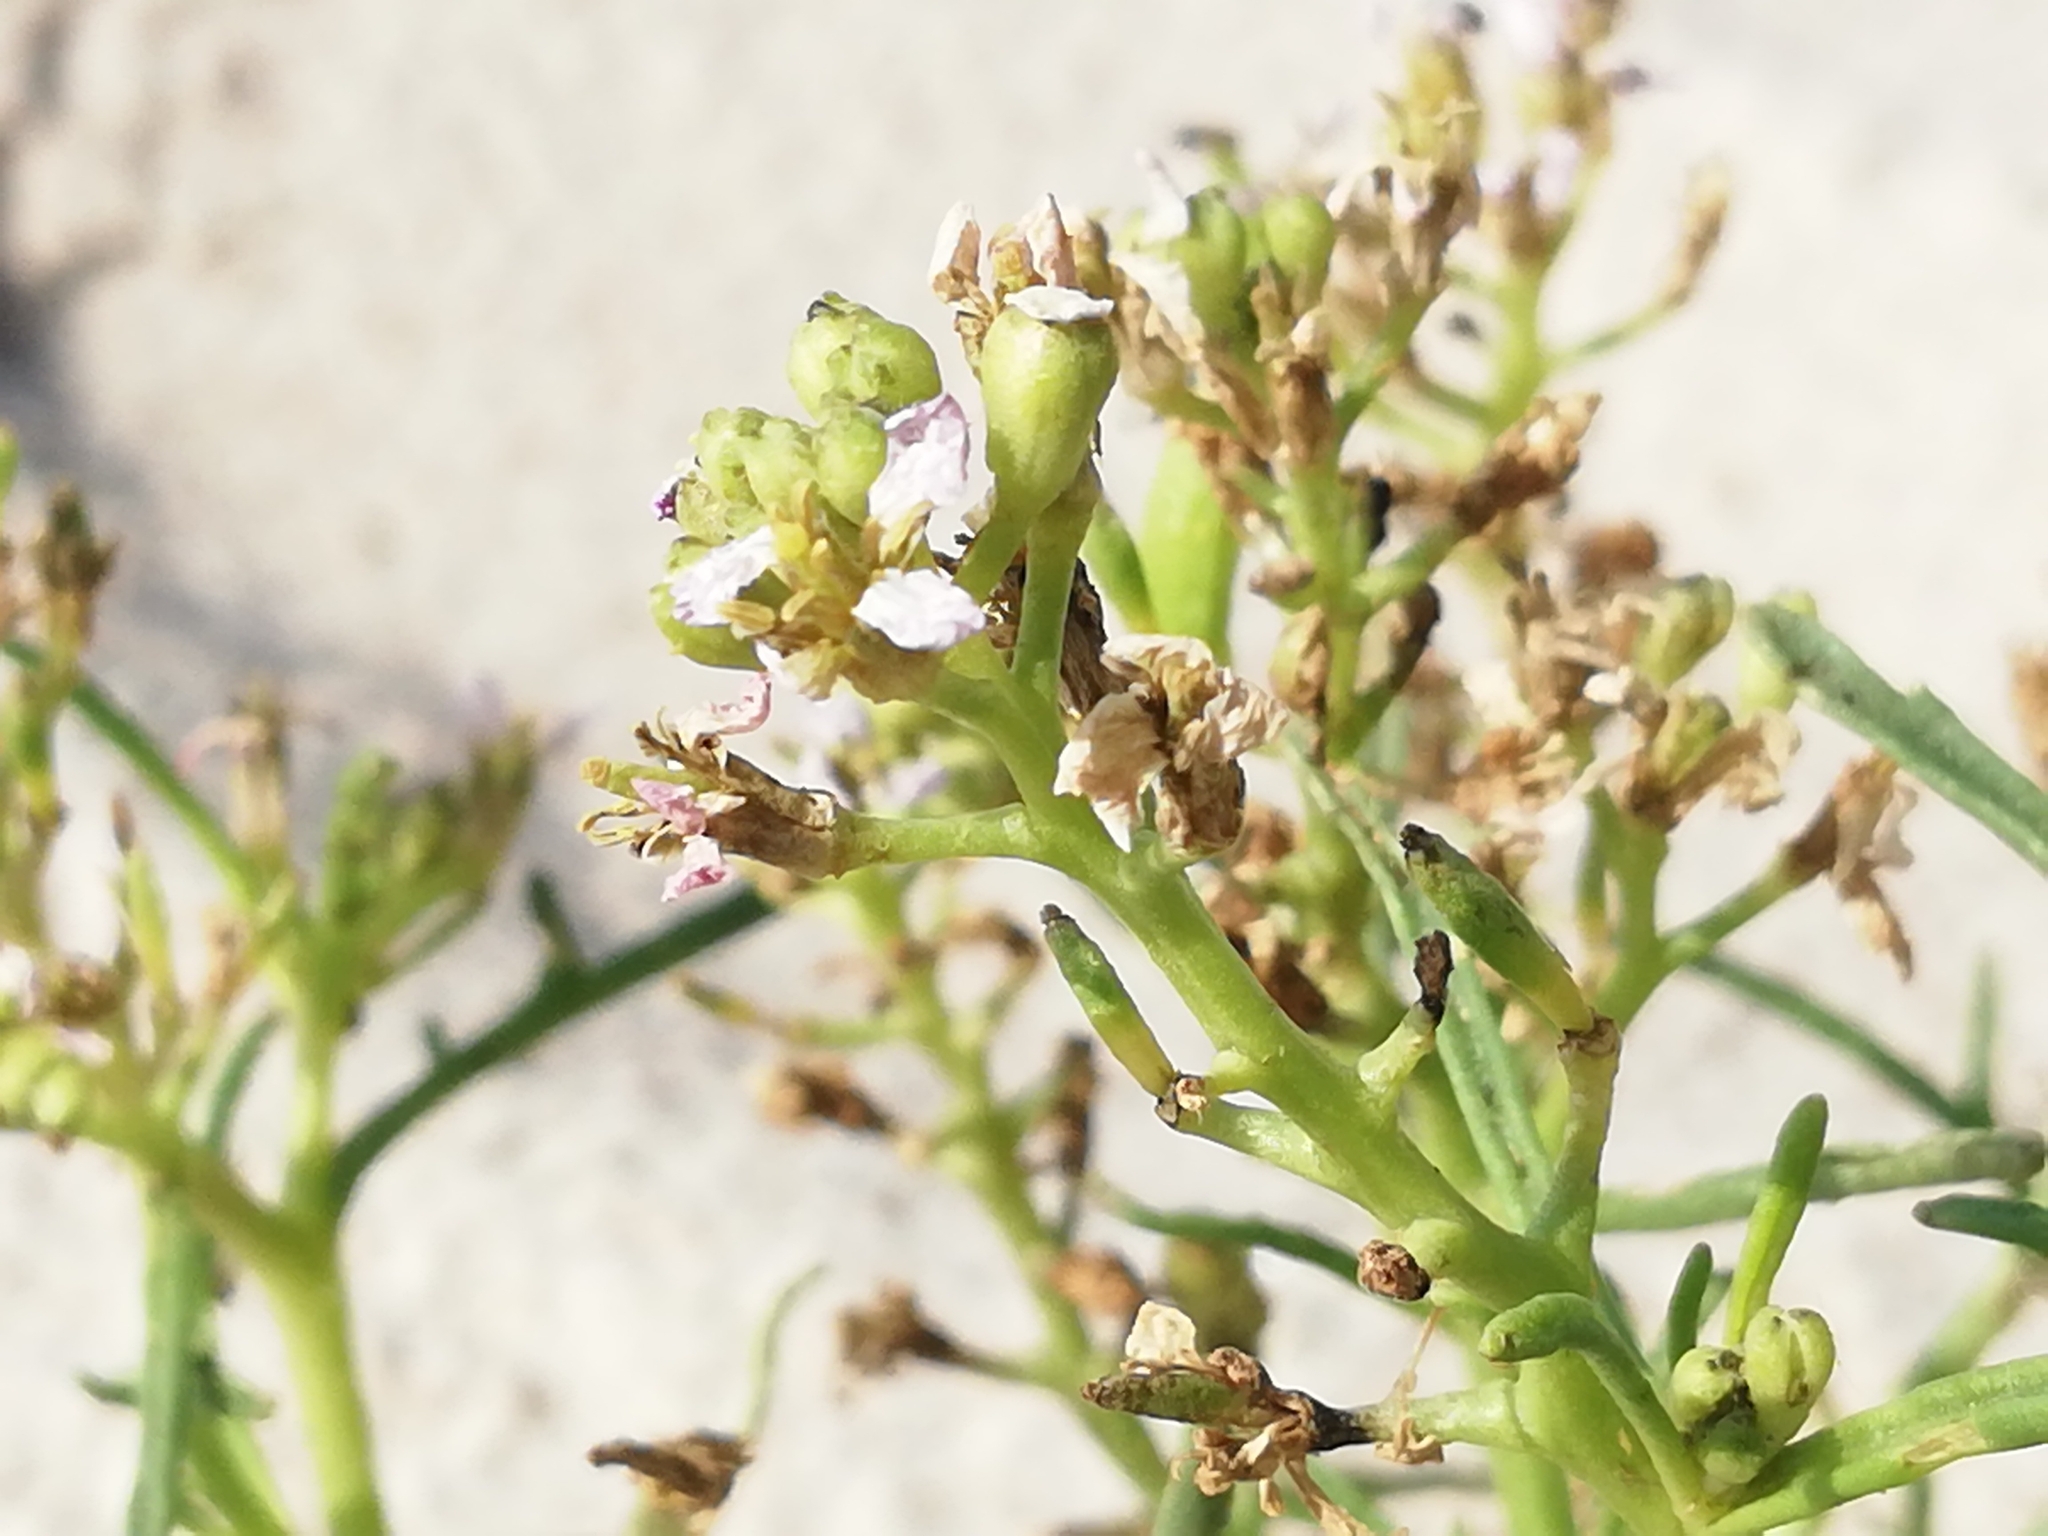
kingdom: Plantae
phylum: Tracheophyta
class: Magnoliopsida
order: Brassicales
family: Brassicaceae
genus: Cakile
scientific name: Cakile maritima
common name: Sea rocket
